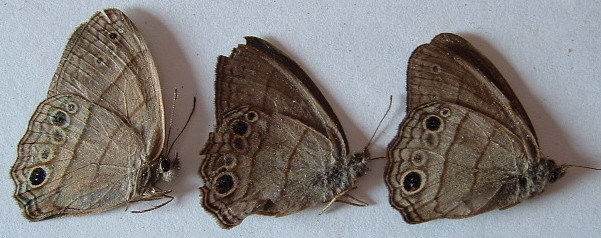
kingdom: Animalia
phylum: Arthropoda
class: Insecta
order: Lepidoptera
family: Nymphalidae
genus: Vareuptychia
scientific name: Vareuptychia similis
